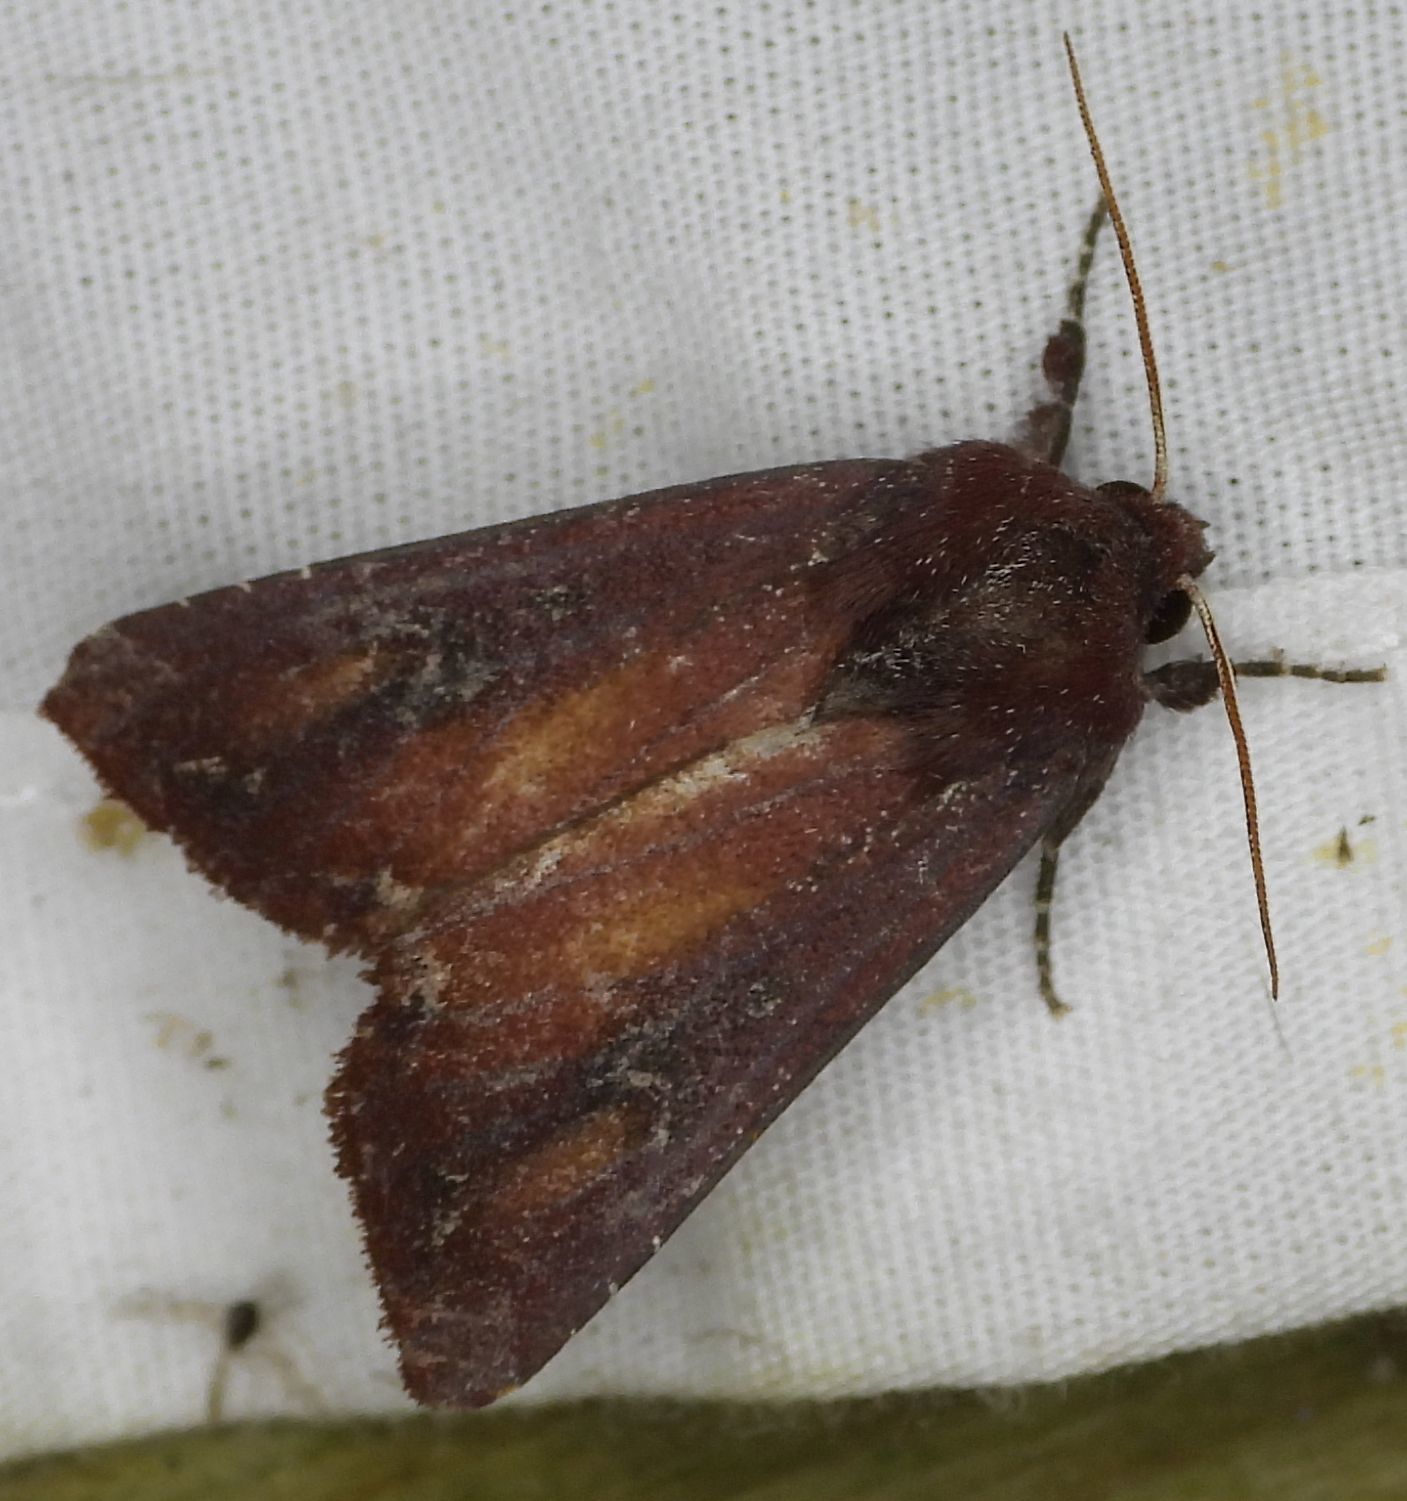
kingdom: Animalia
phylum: Arthropoda
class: Insecta
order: Lepidoptera
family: Noctuidae
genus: Melanchra
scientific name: Melanchra picta
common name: Zebra caterpillar
